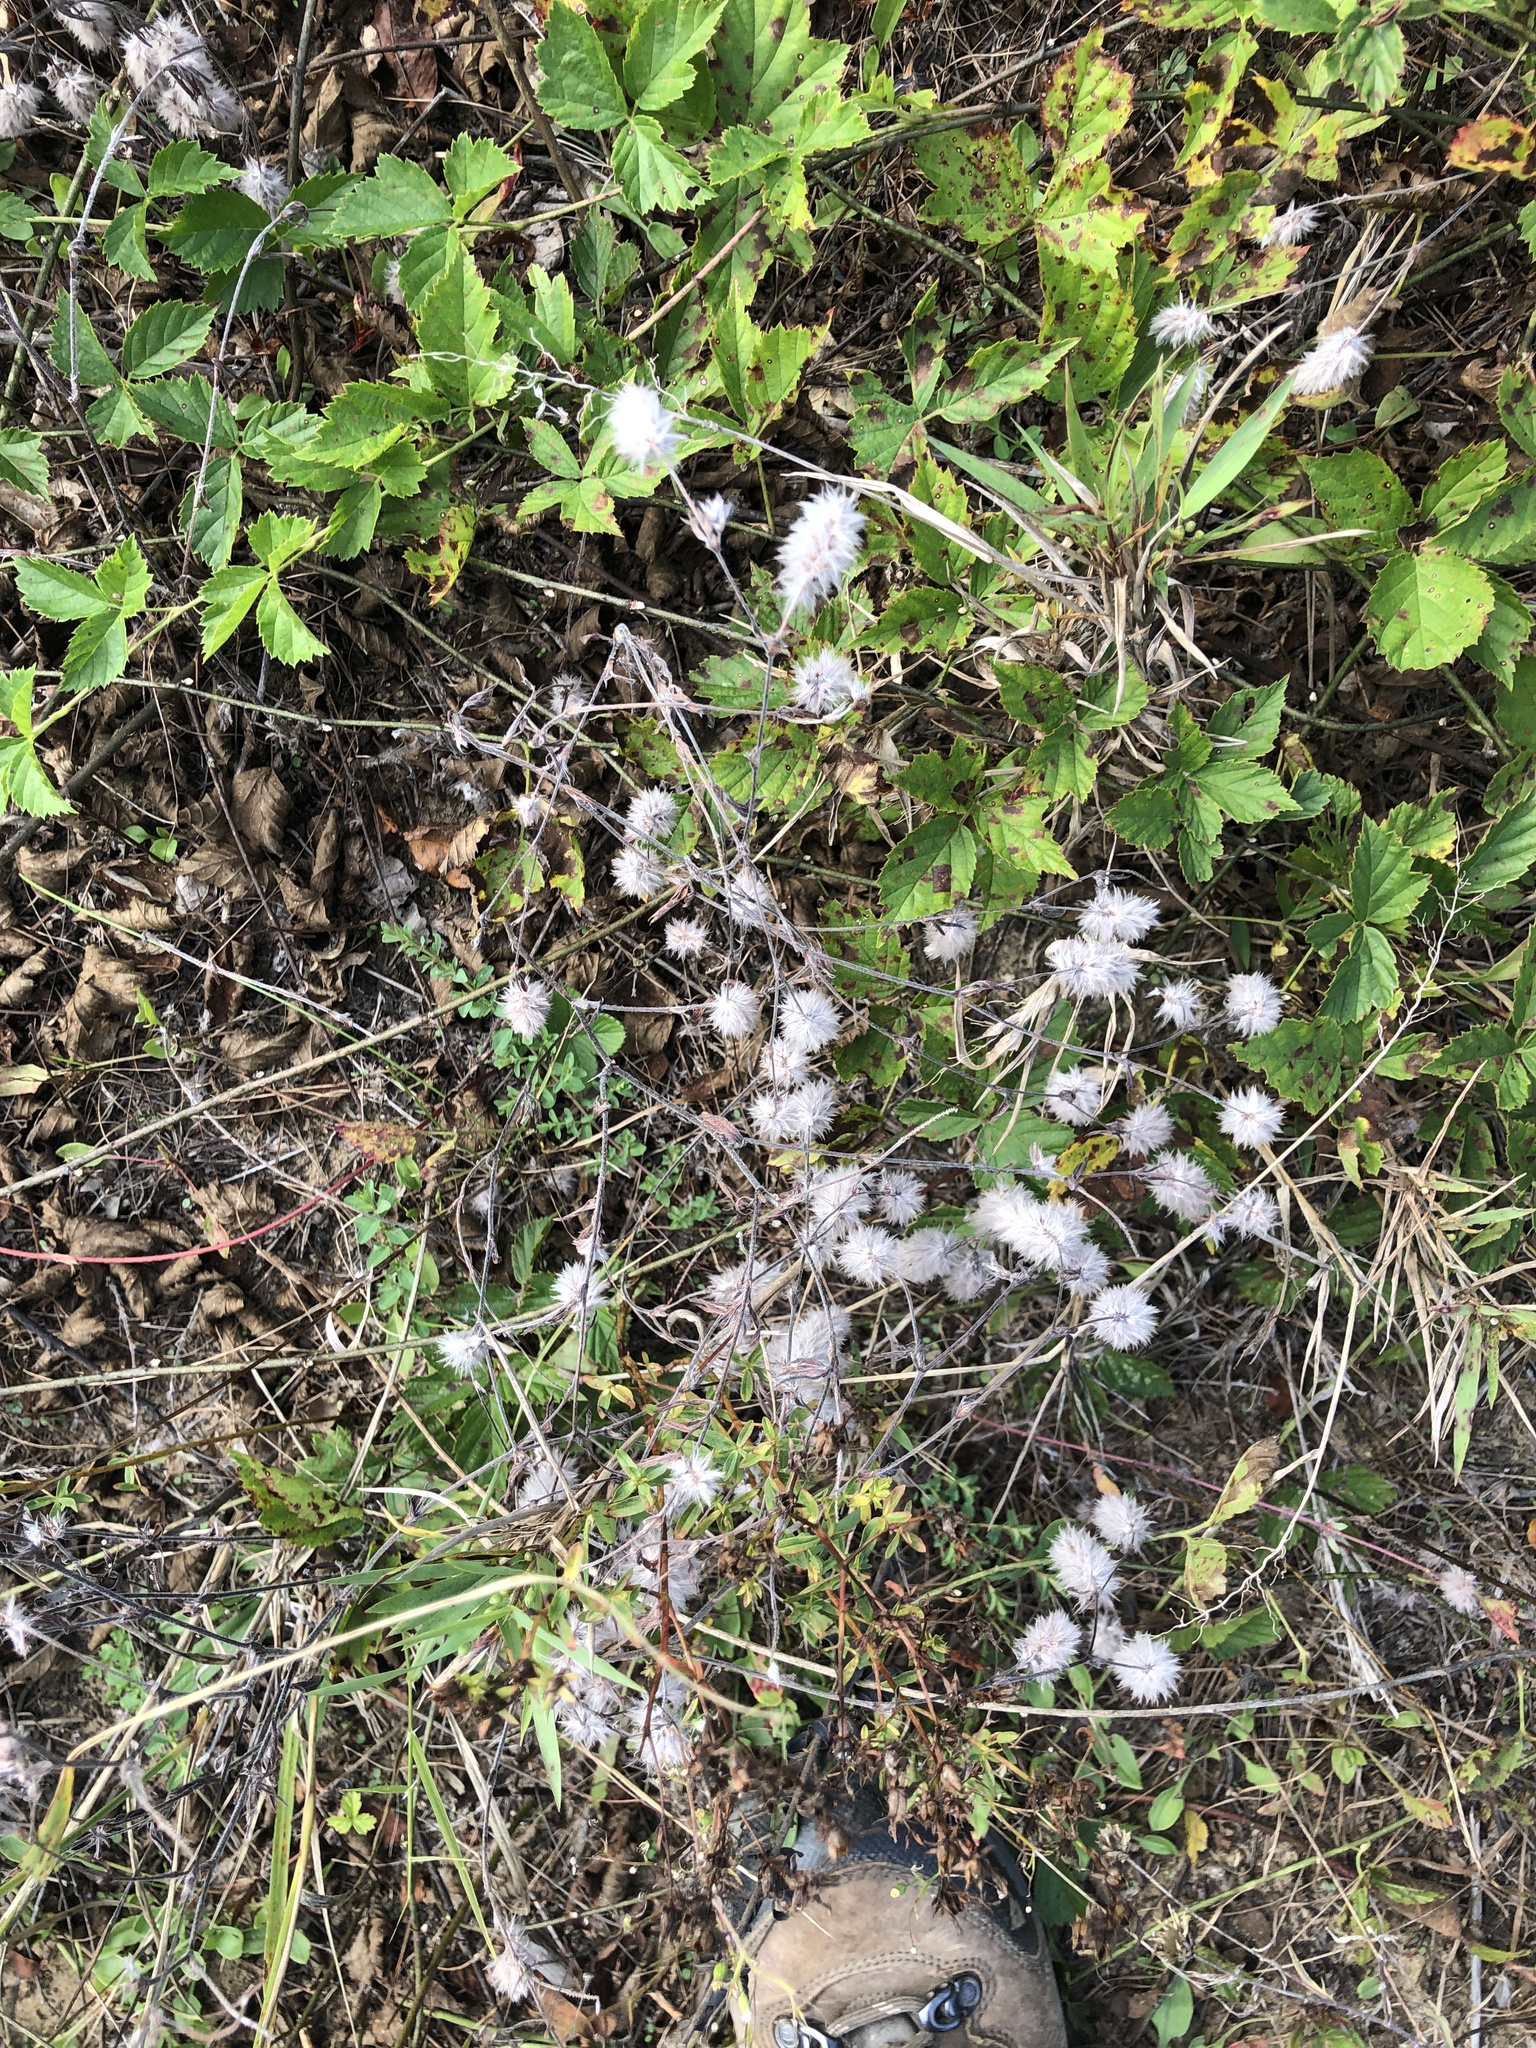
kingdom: Plantae
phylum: Tracheophyta
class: Magnoliopsida
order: Fabales
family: Fabaceae
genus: Trifolium
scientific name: Trifolium arvense
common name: Hare's-foot clover
